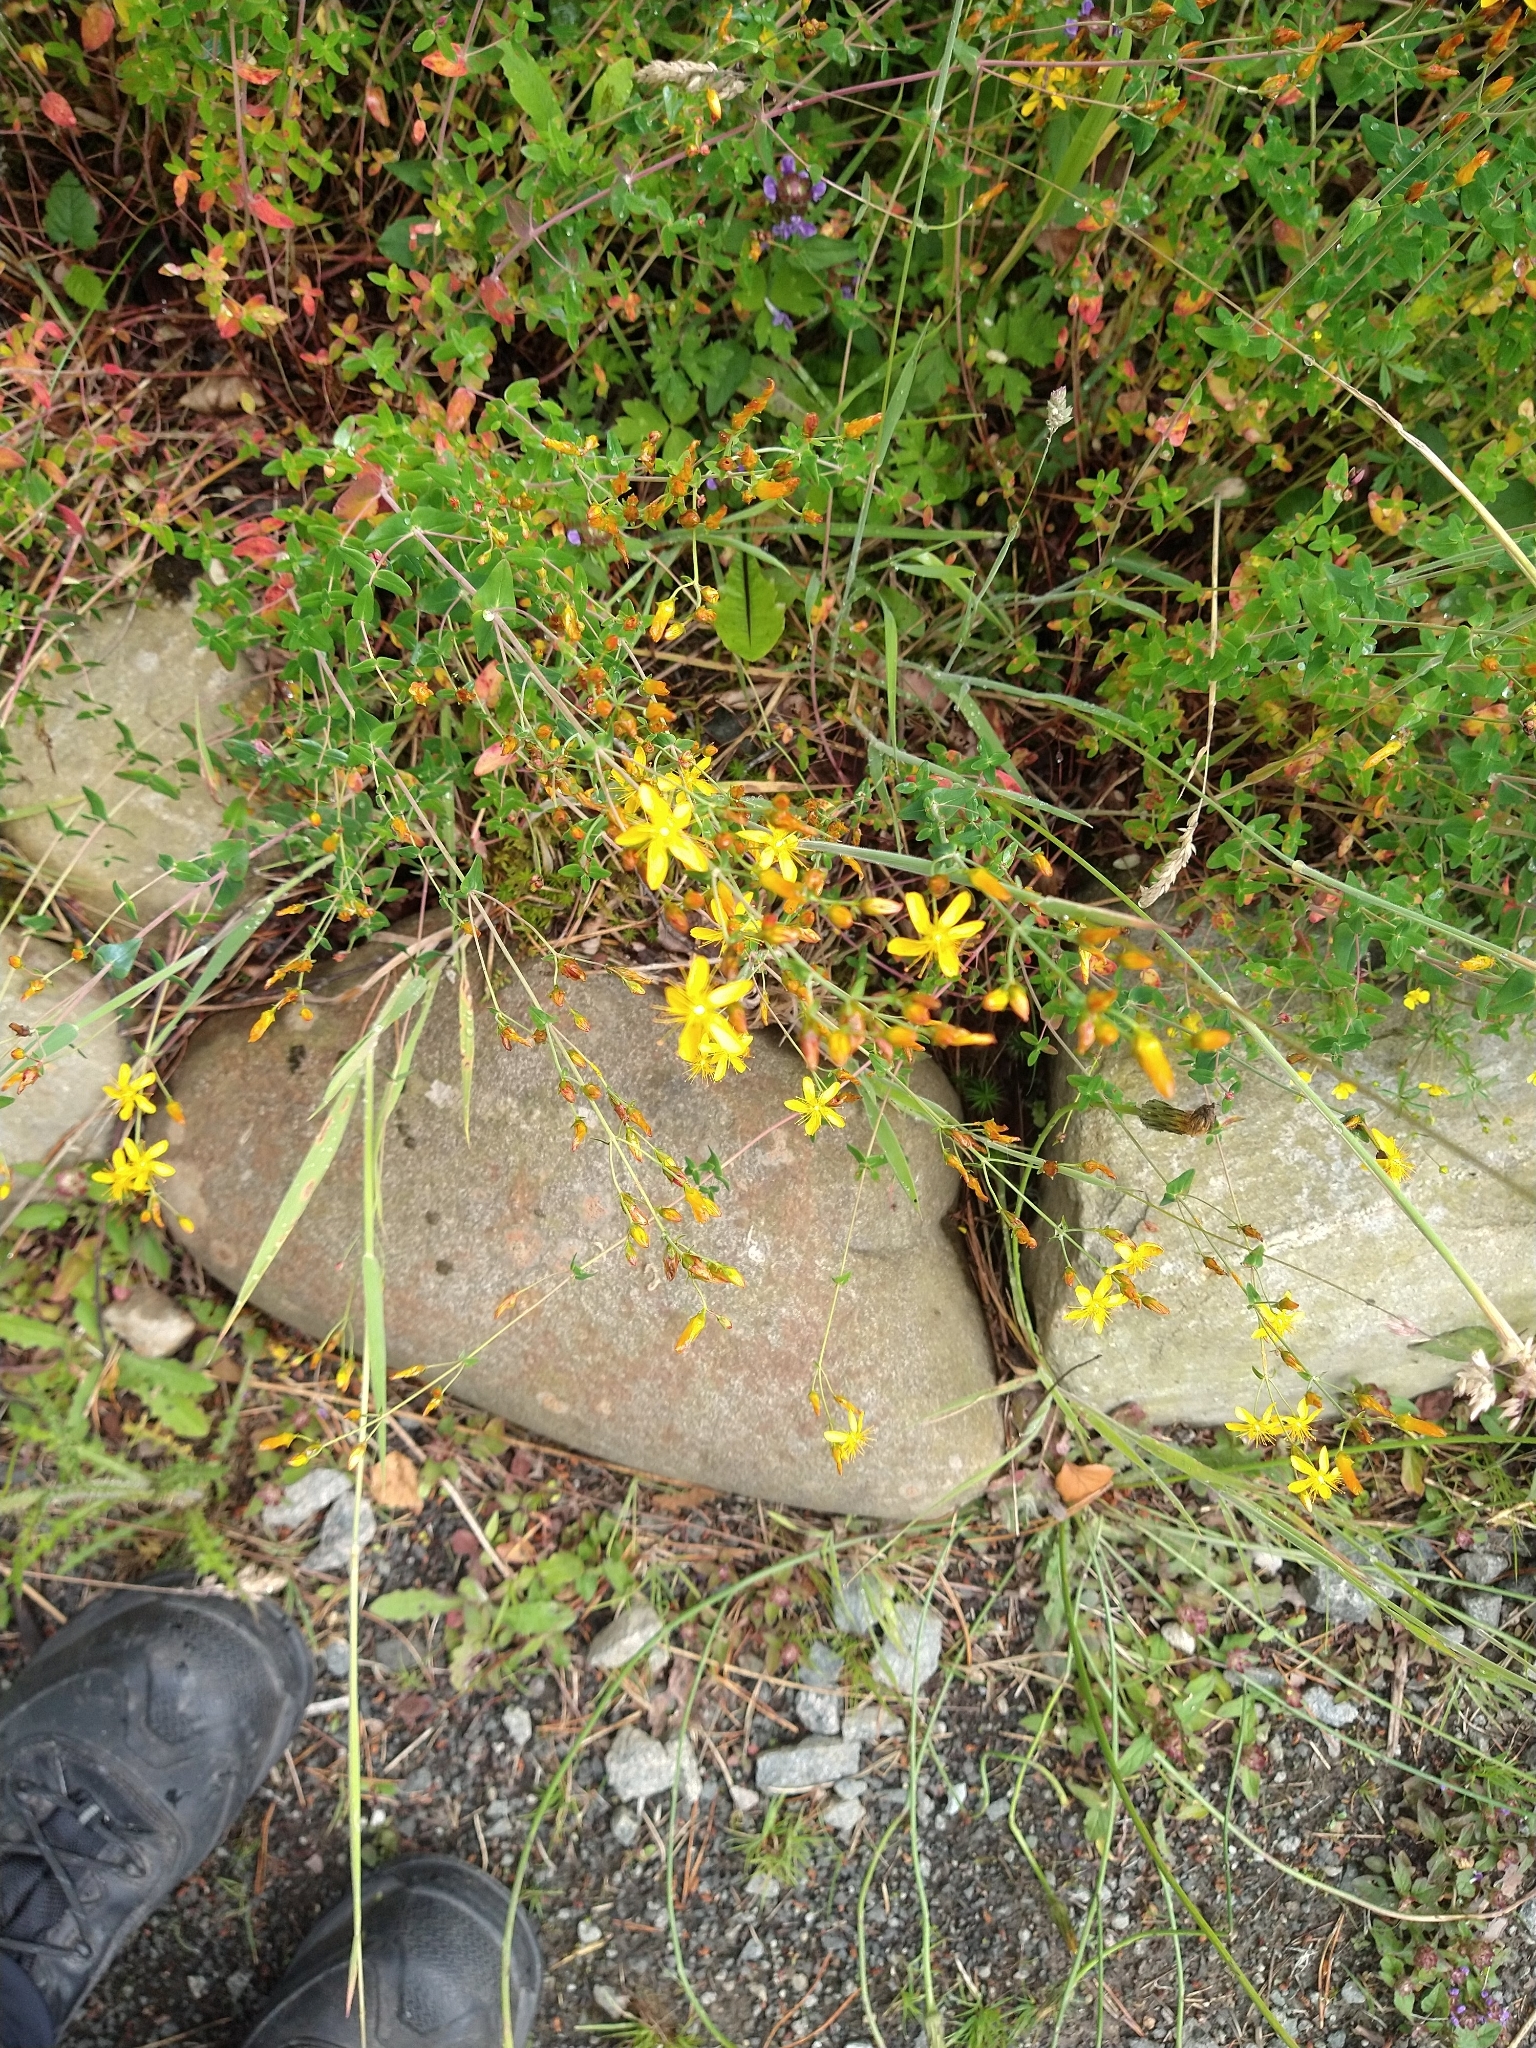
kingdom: Plantae
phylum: Tracheophyta
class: Magnoliopsida
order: Malpighiales
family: Hypericaceae
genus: Hypericum
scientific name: Hypericum pulchrum
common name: Slender st. john's-wort
